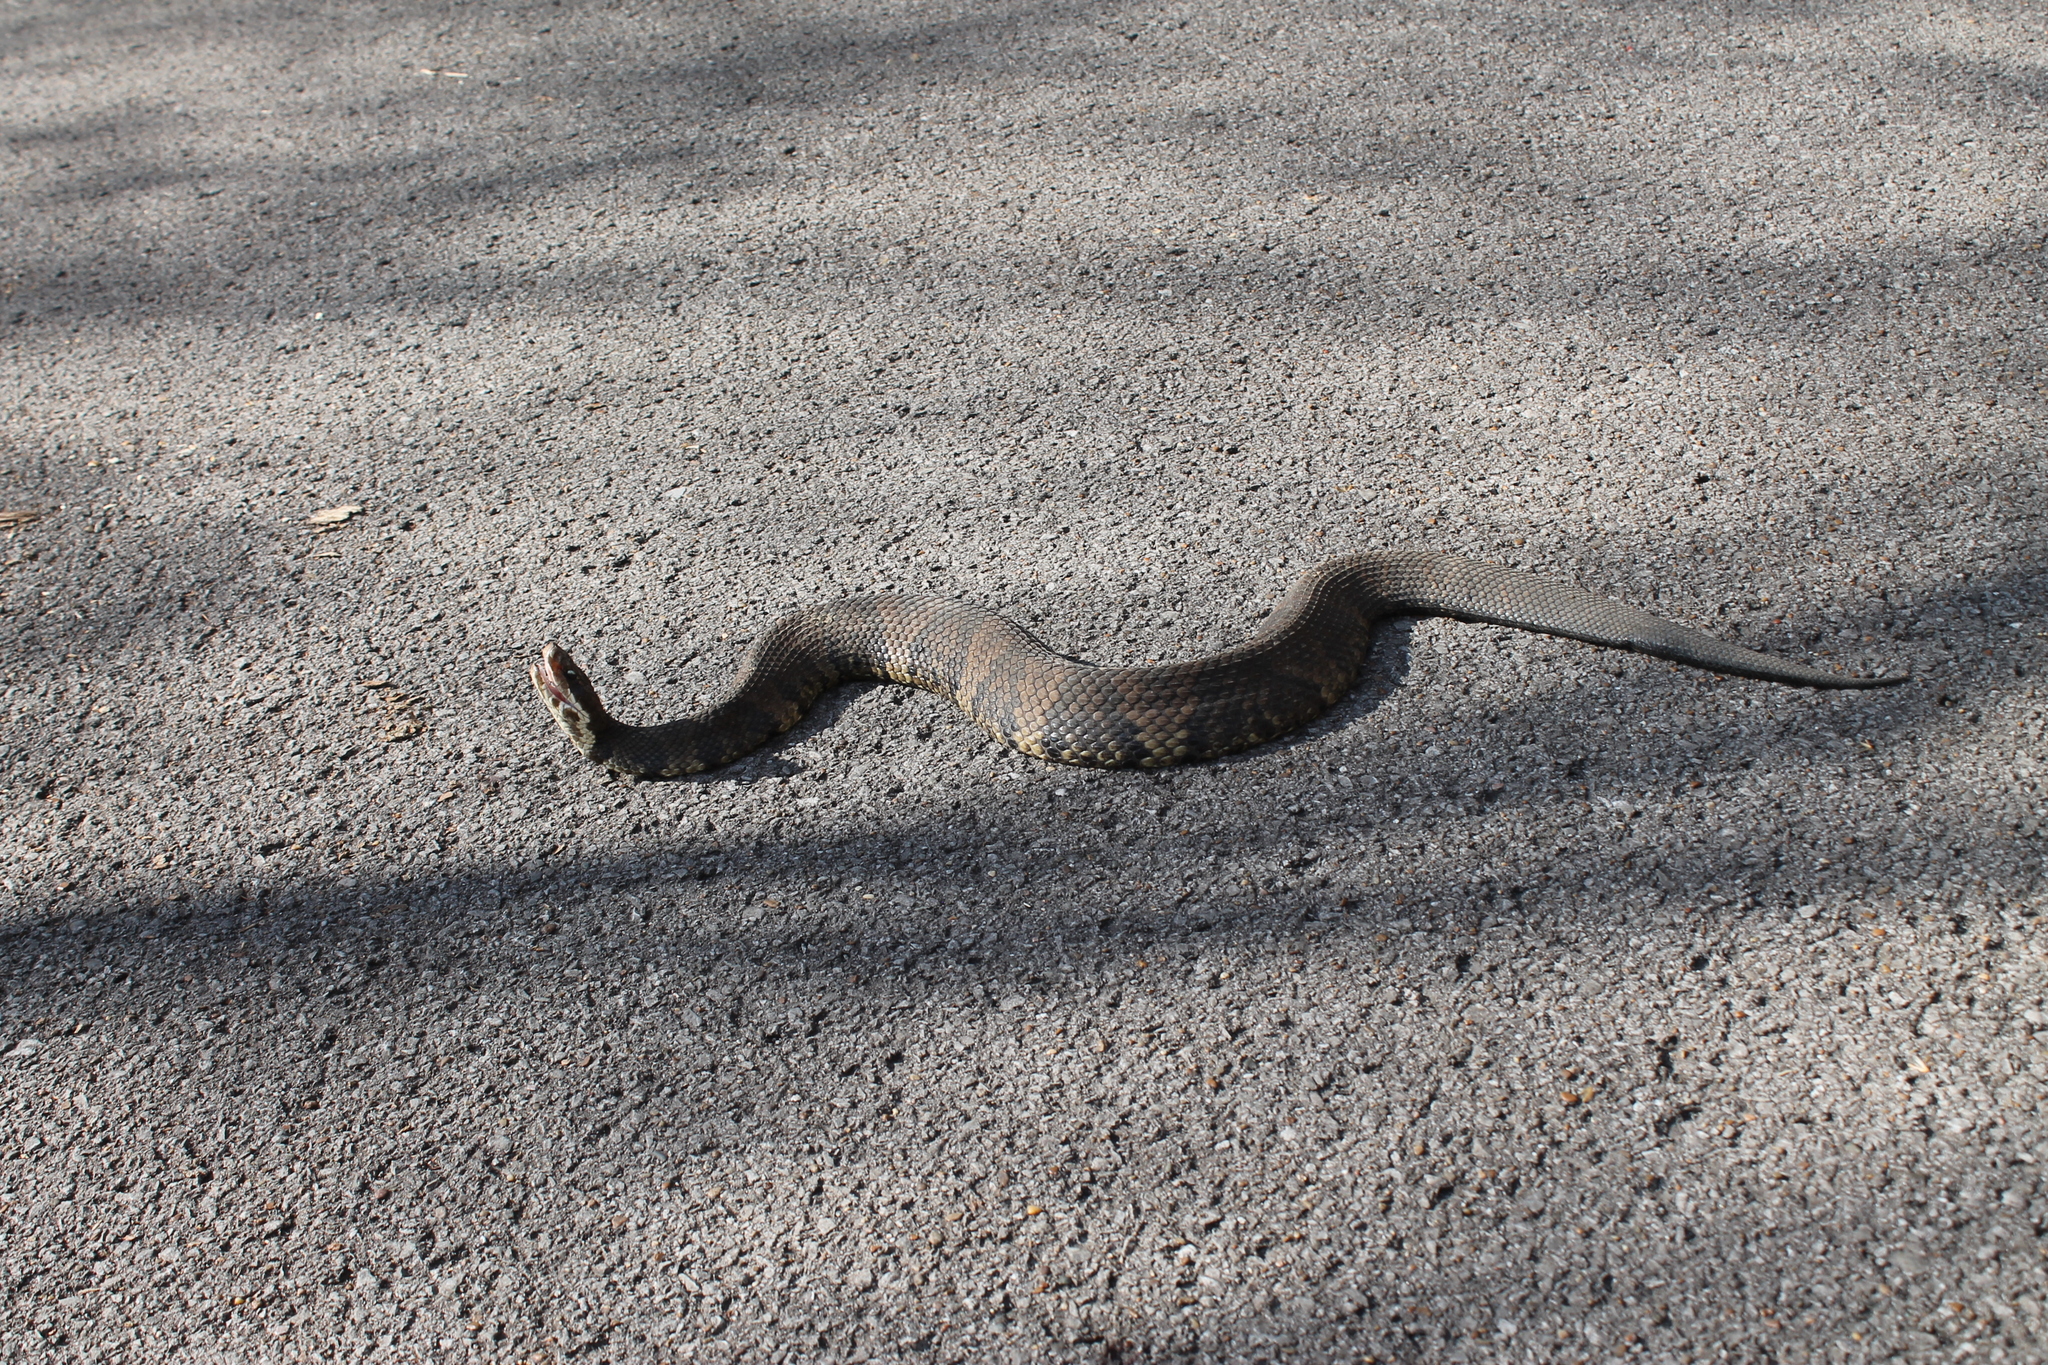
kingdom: Animalia
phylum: Chordata
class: Squamata
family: Viperidae
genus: Agkistrodon
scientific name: Agkistrodon piscivorus
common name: Cottonmouth
